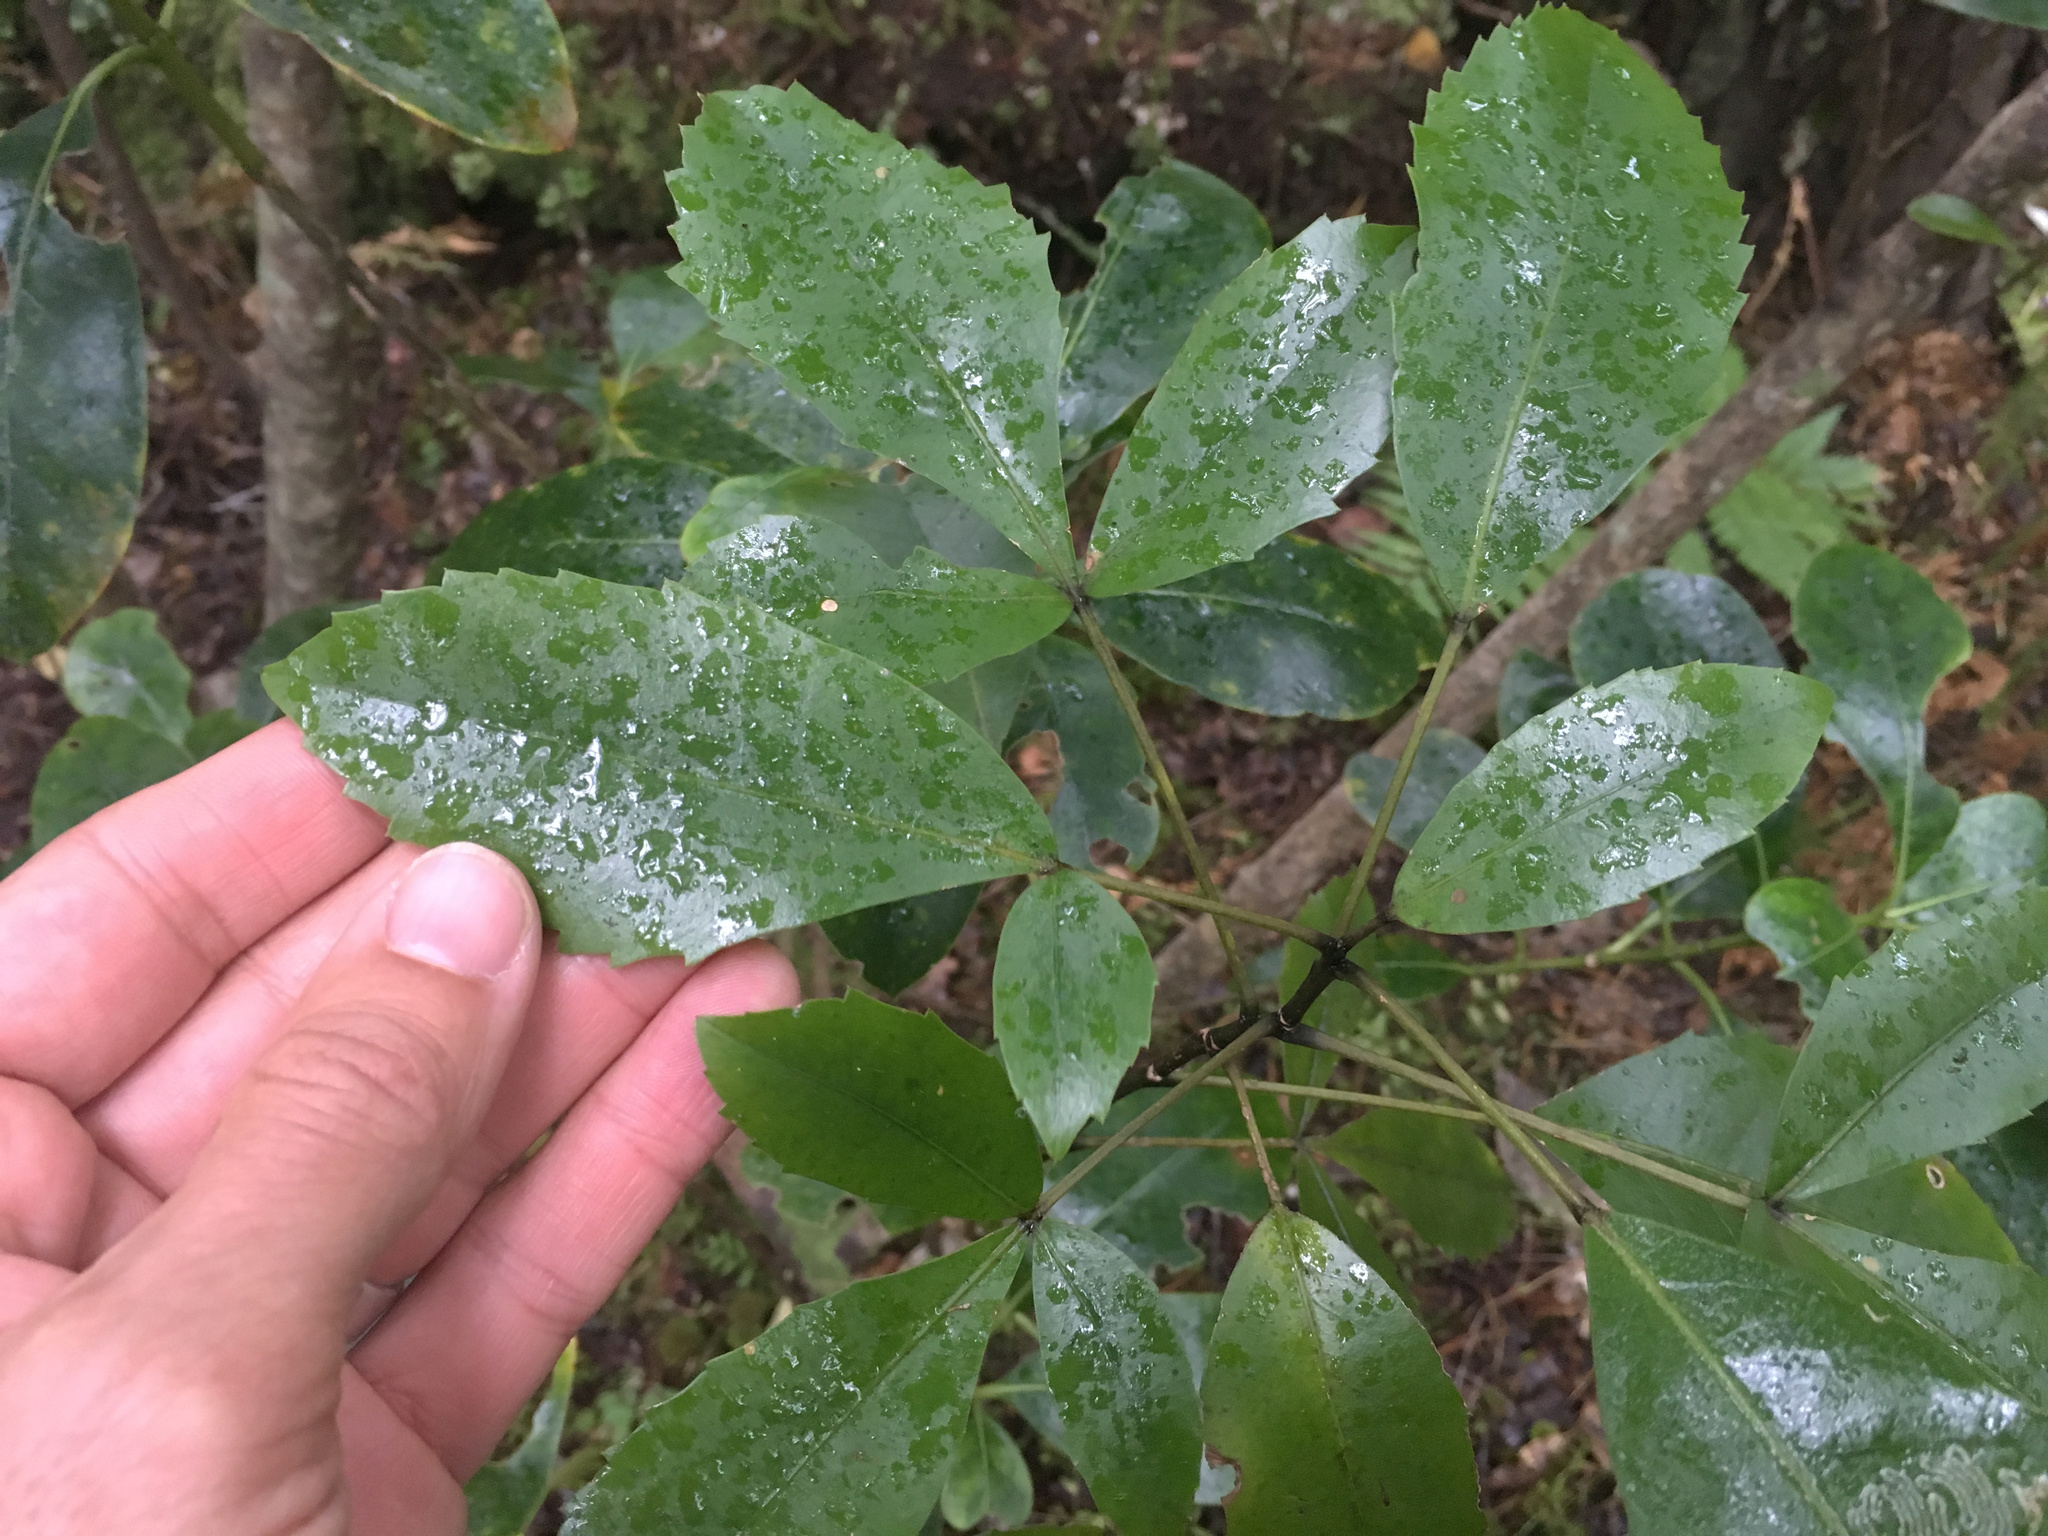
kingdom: Plantae
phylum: Tracheophyta
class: Magnoliopsida
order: Apiales
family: Araliaceae
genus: Raukaua
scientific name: Raukaua simplex
